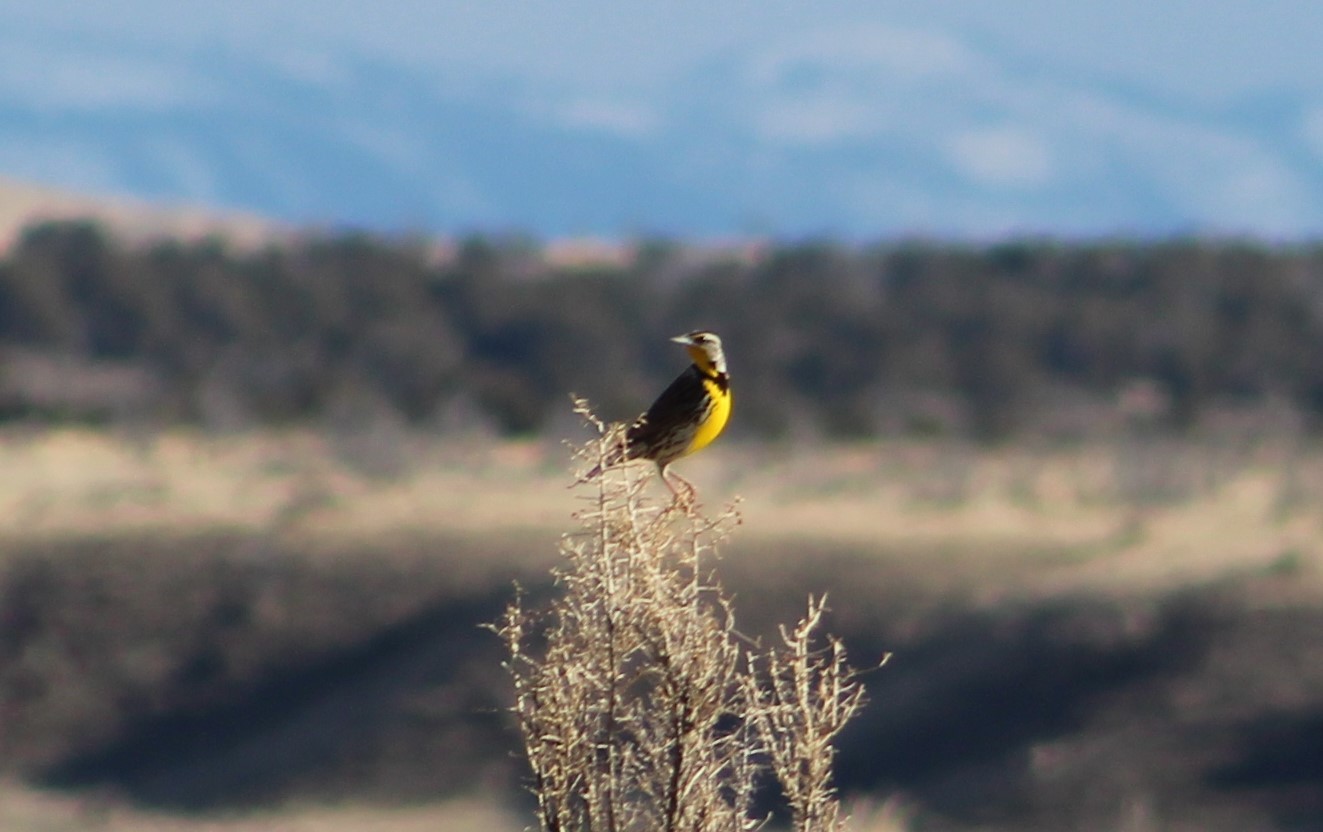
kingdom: Animalia
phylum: Chordata
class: Aves
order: Passeriformes
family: Icteridae
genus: Sturnella
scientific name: Sturnella neglecta
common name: Western meadowlark
